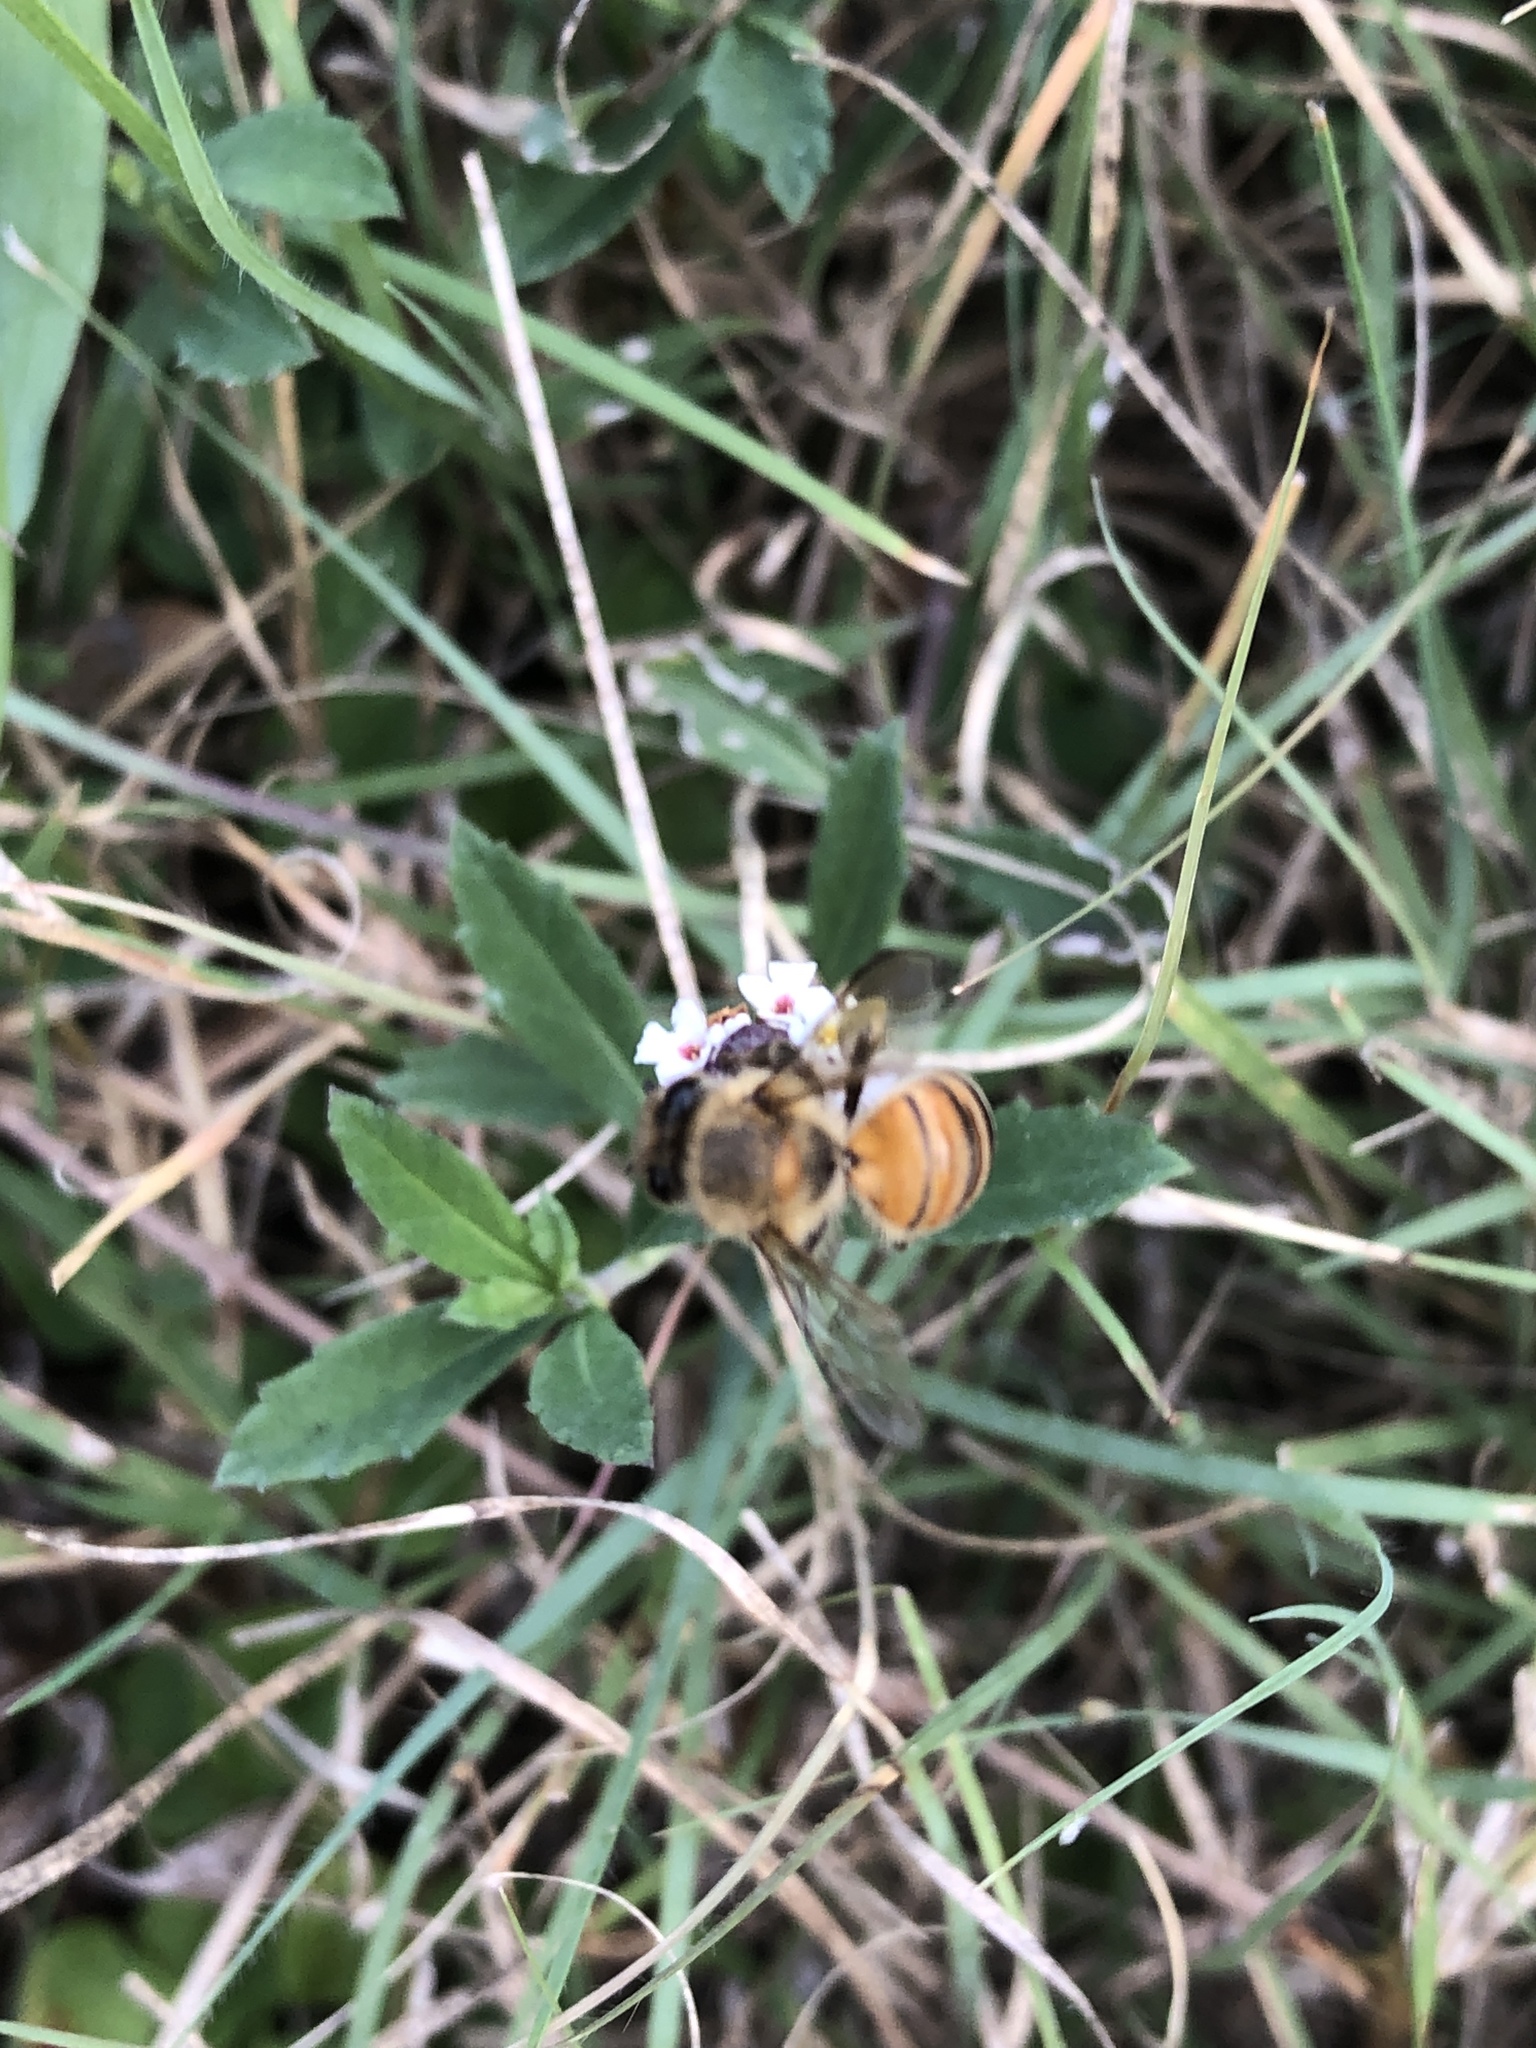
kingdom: Animalia
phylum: Arthropoda
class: Insecta
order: Hymenoptera
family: Apidae
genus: Apis
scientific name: Apis mellifera
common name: Honey bee
